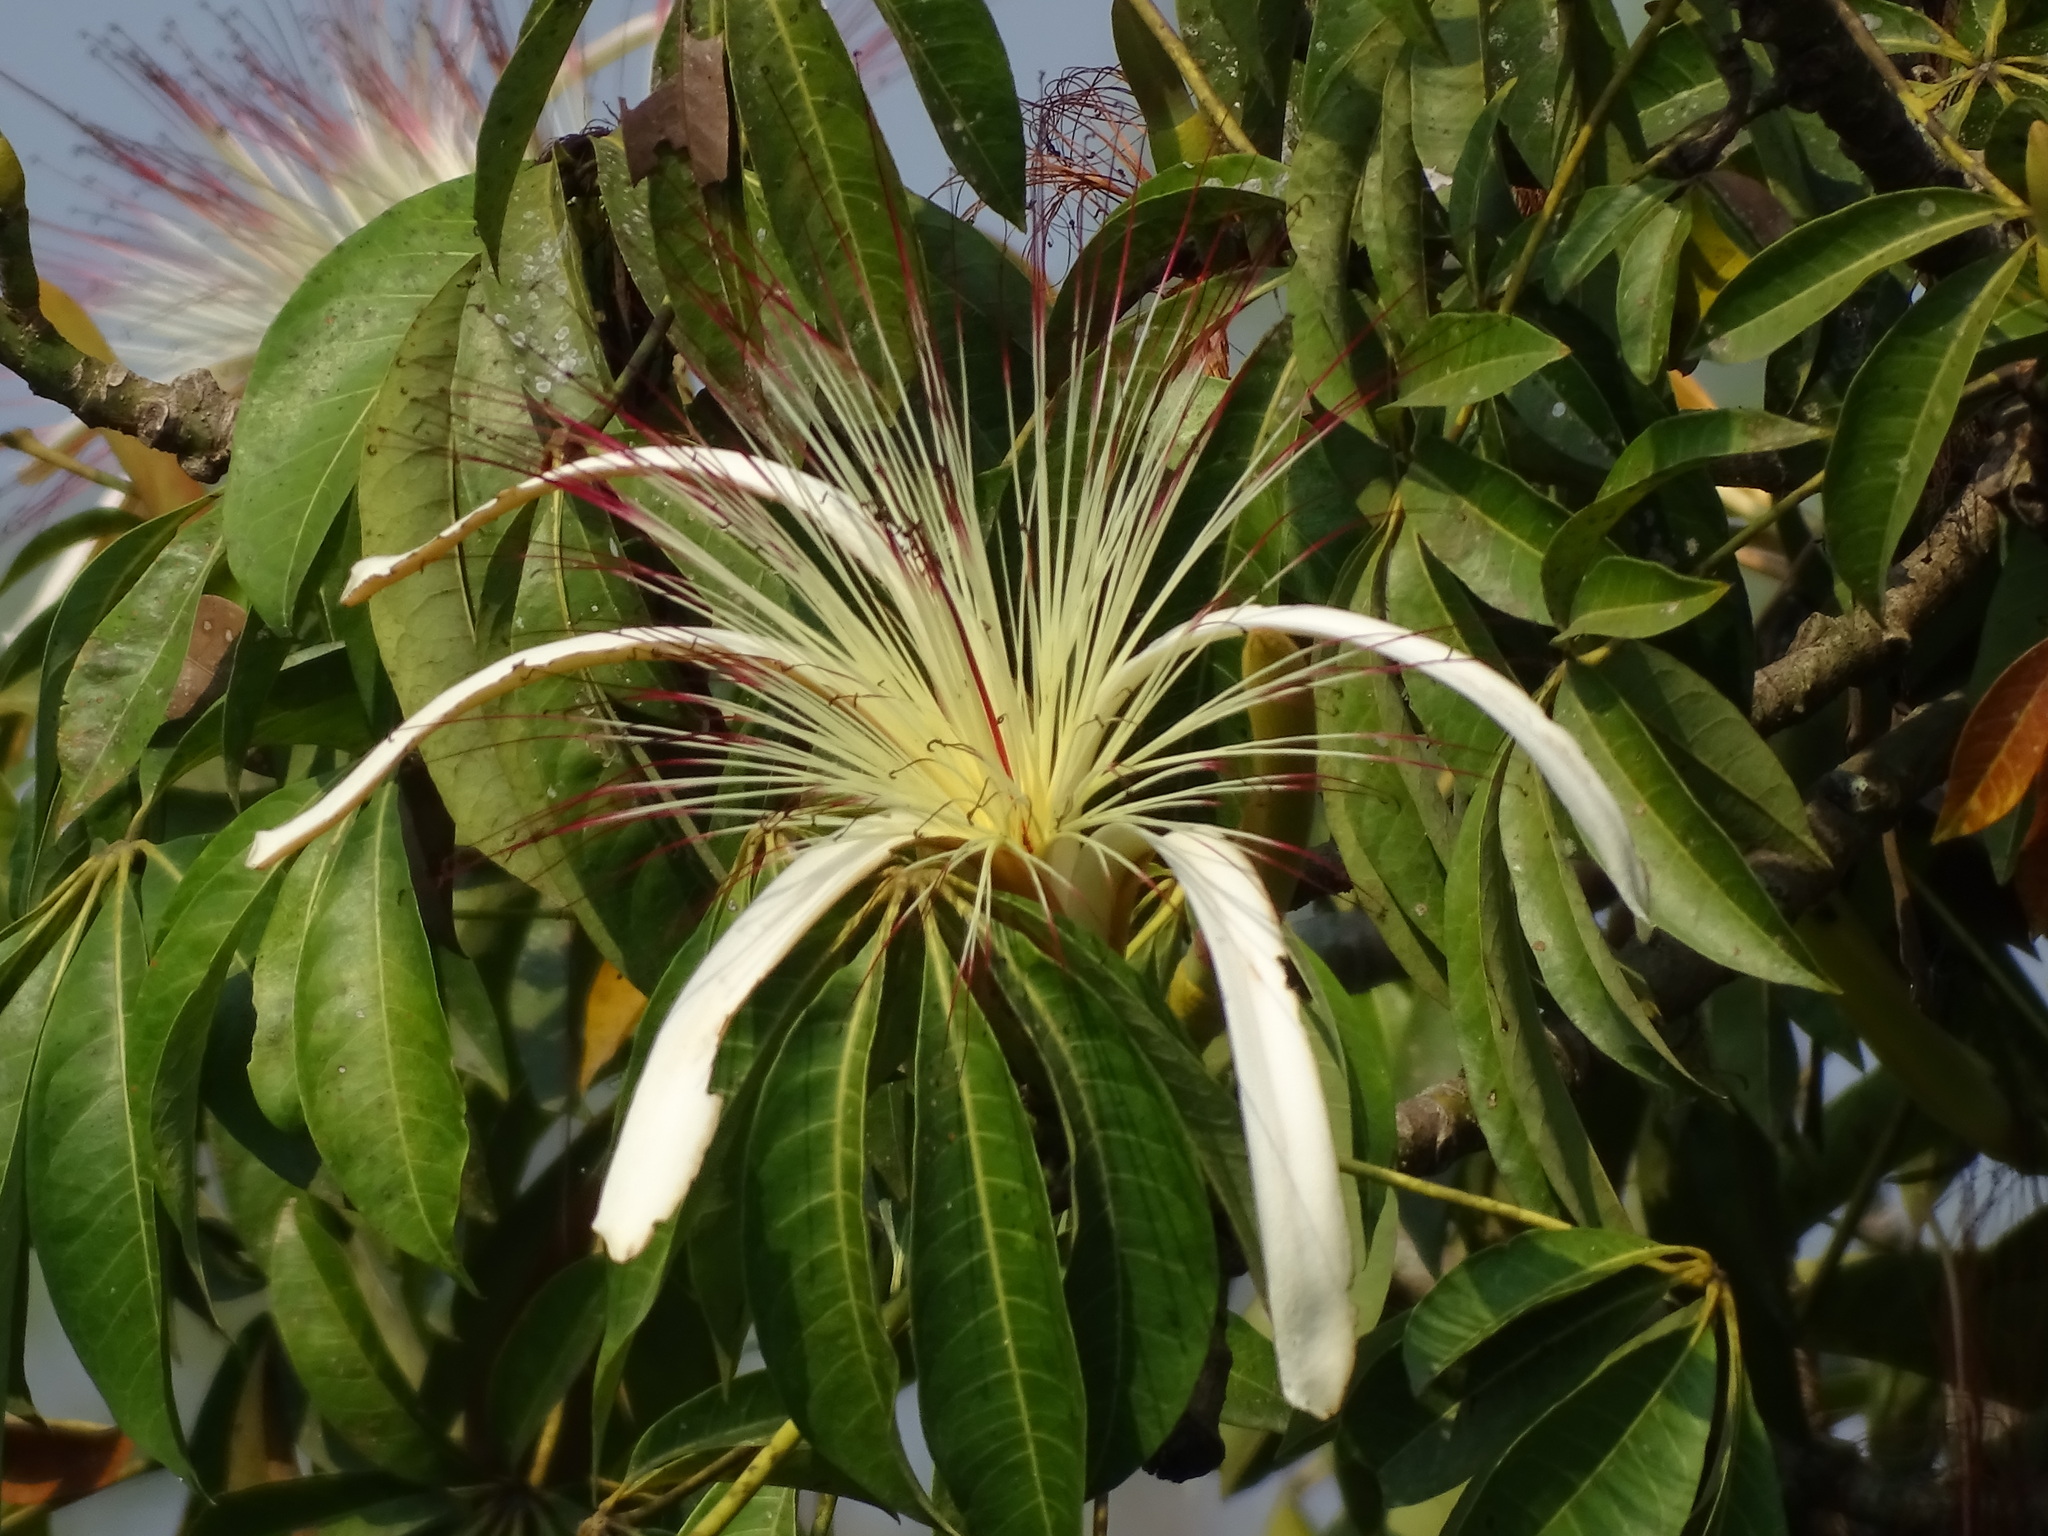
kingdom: Plantae
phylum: Tracheophyta
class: Magnoliopsida
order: Malvales
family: Malvaceae
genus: Pachira
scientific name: Pachira aquatica
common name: Provision-tree
